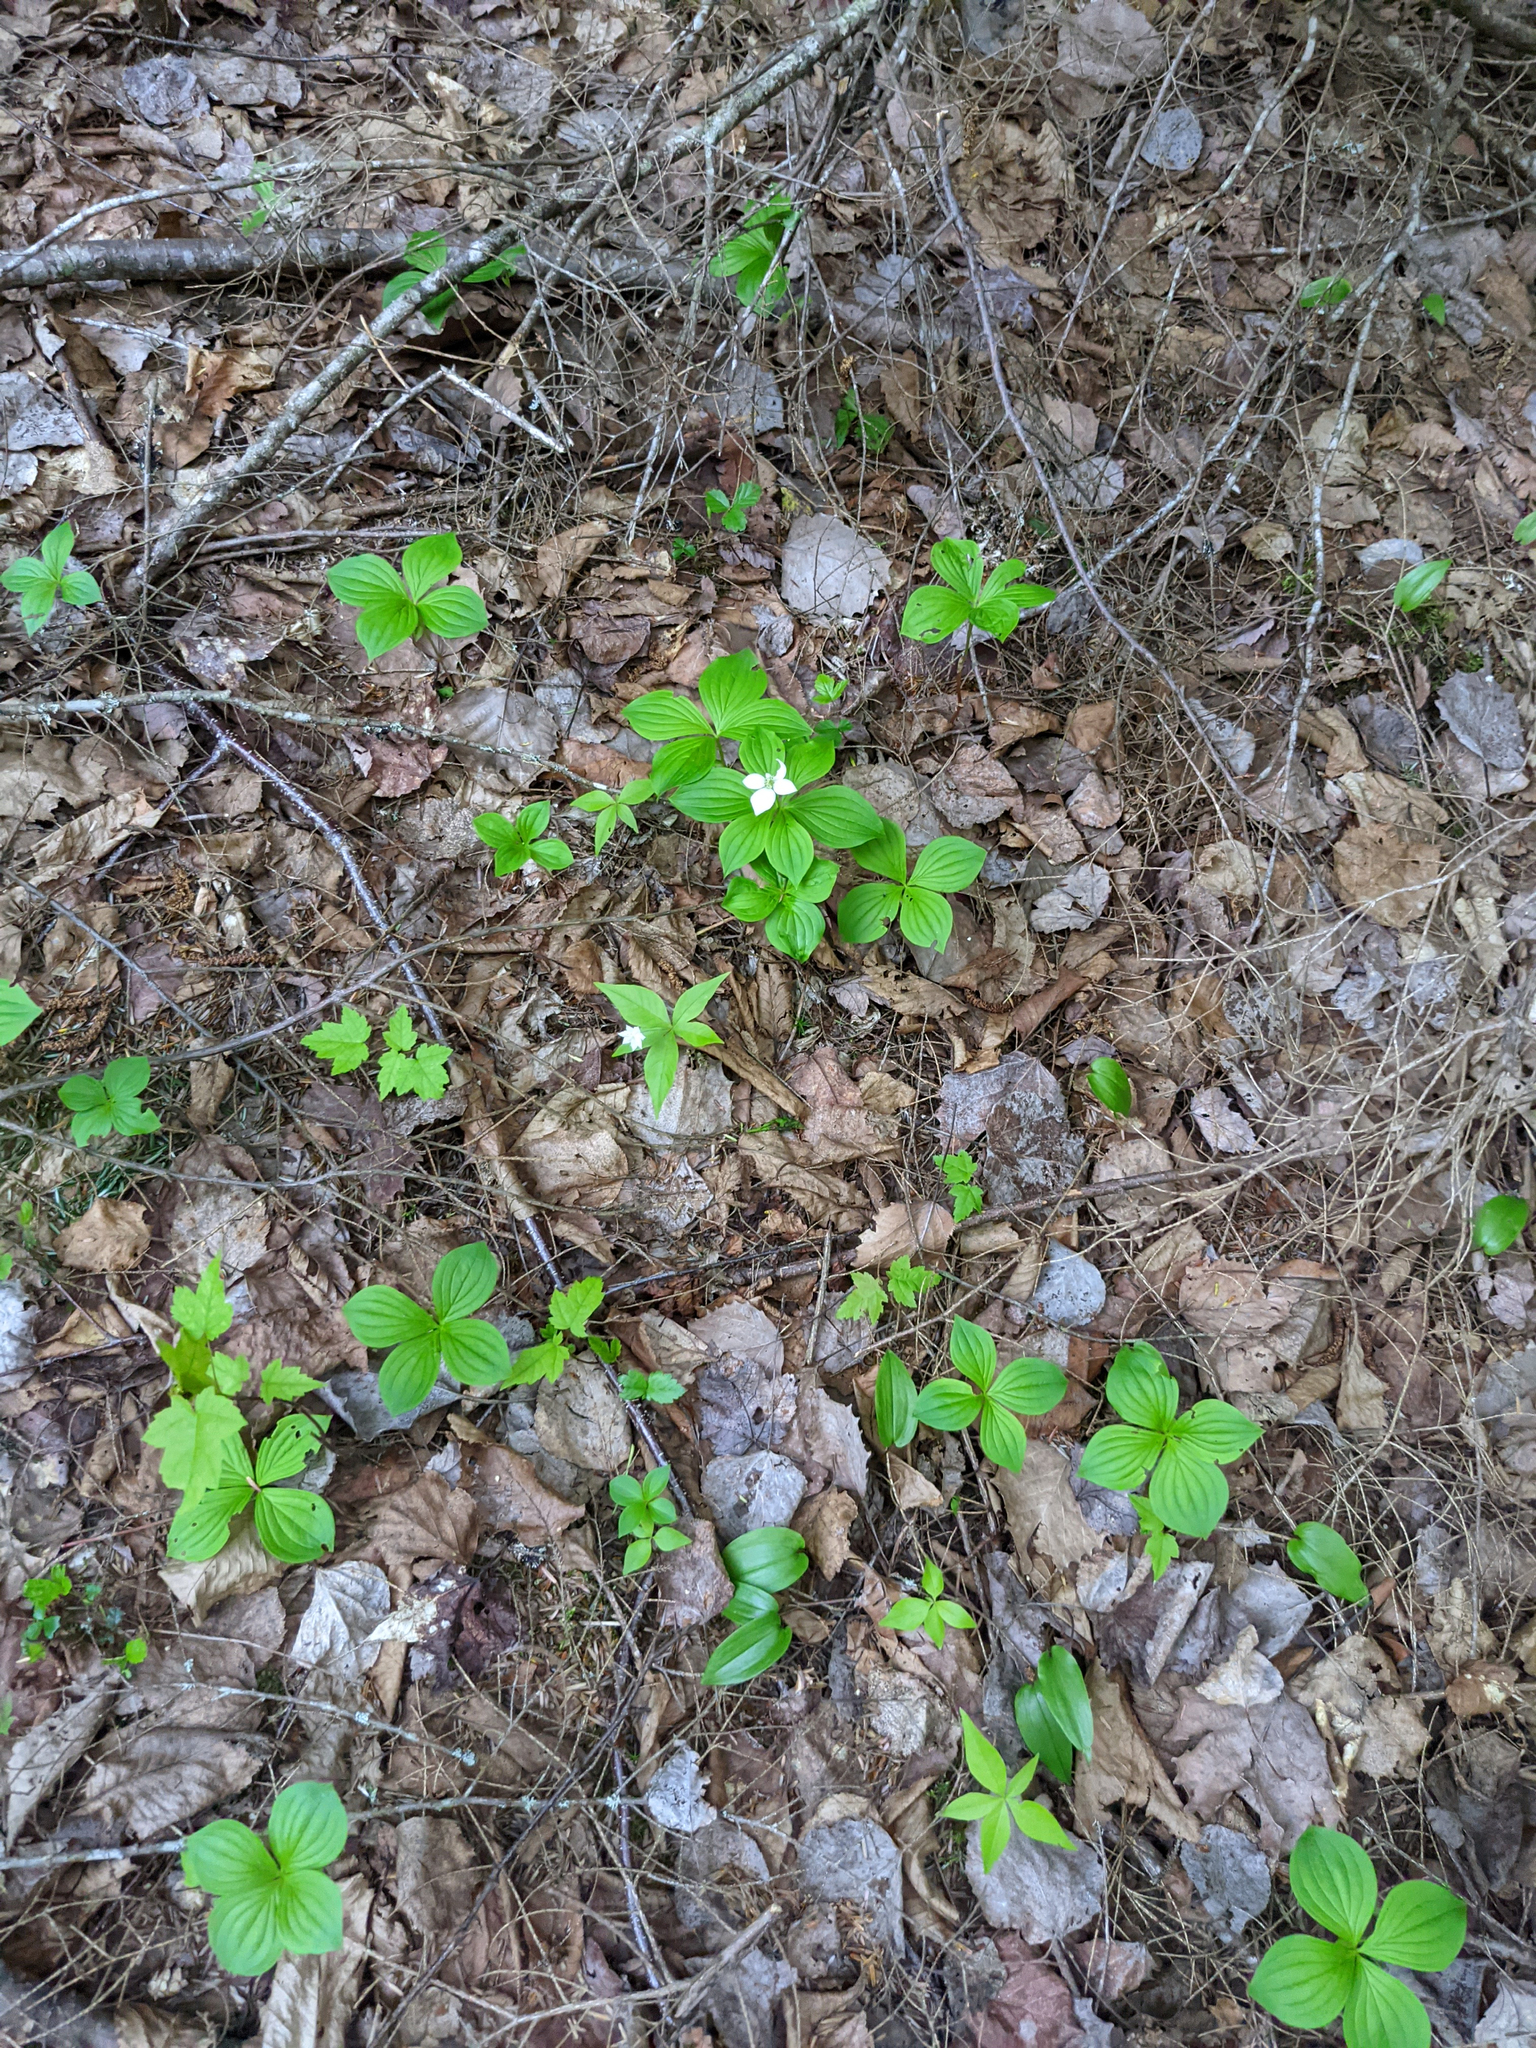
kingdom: Plantae
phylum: Tracheophyta
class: Magnoliopsida
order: Cornales
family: Cornaceae
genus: Cornus
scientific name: Cornus canadensis
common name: Creeping dogwood
